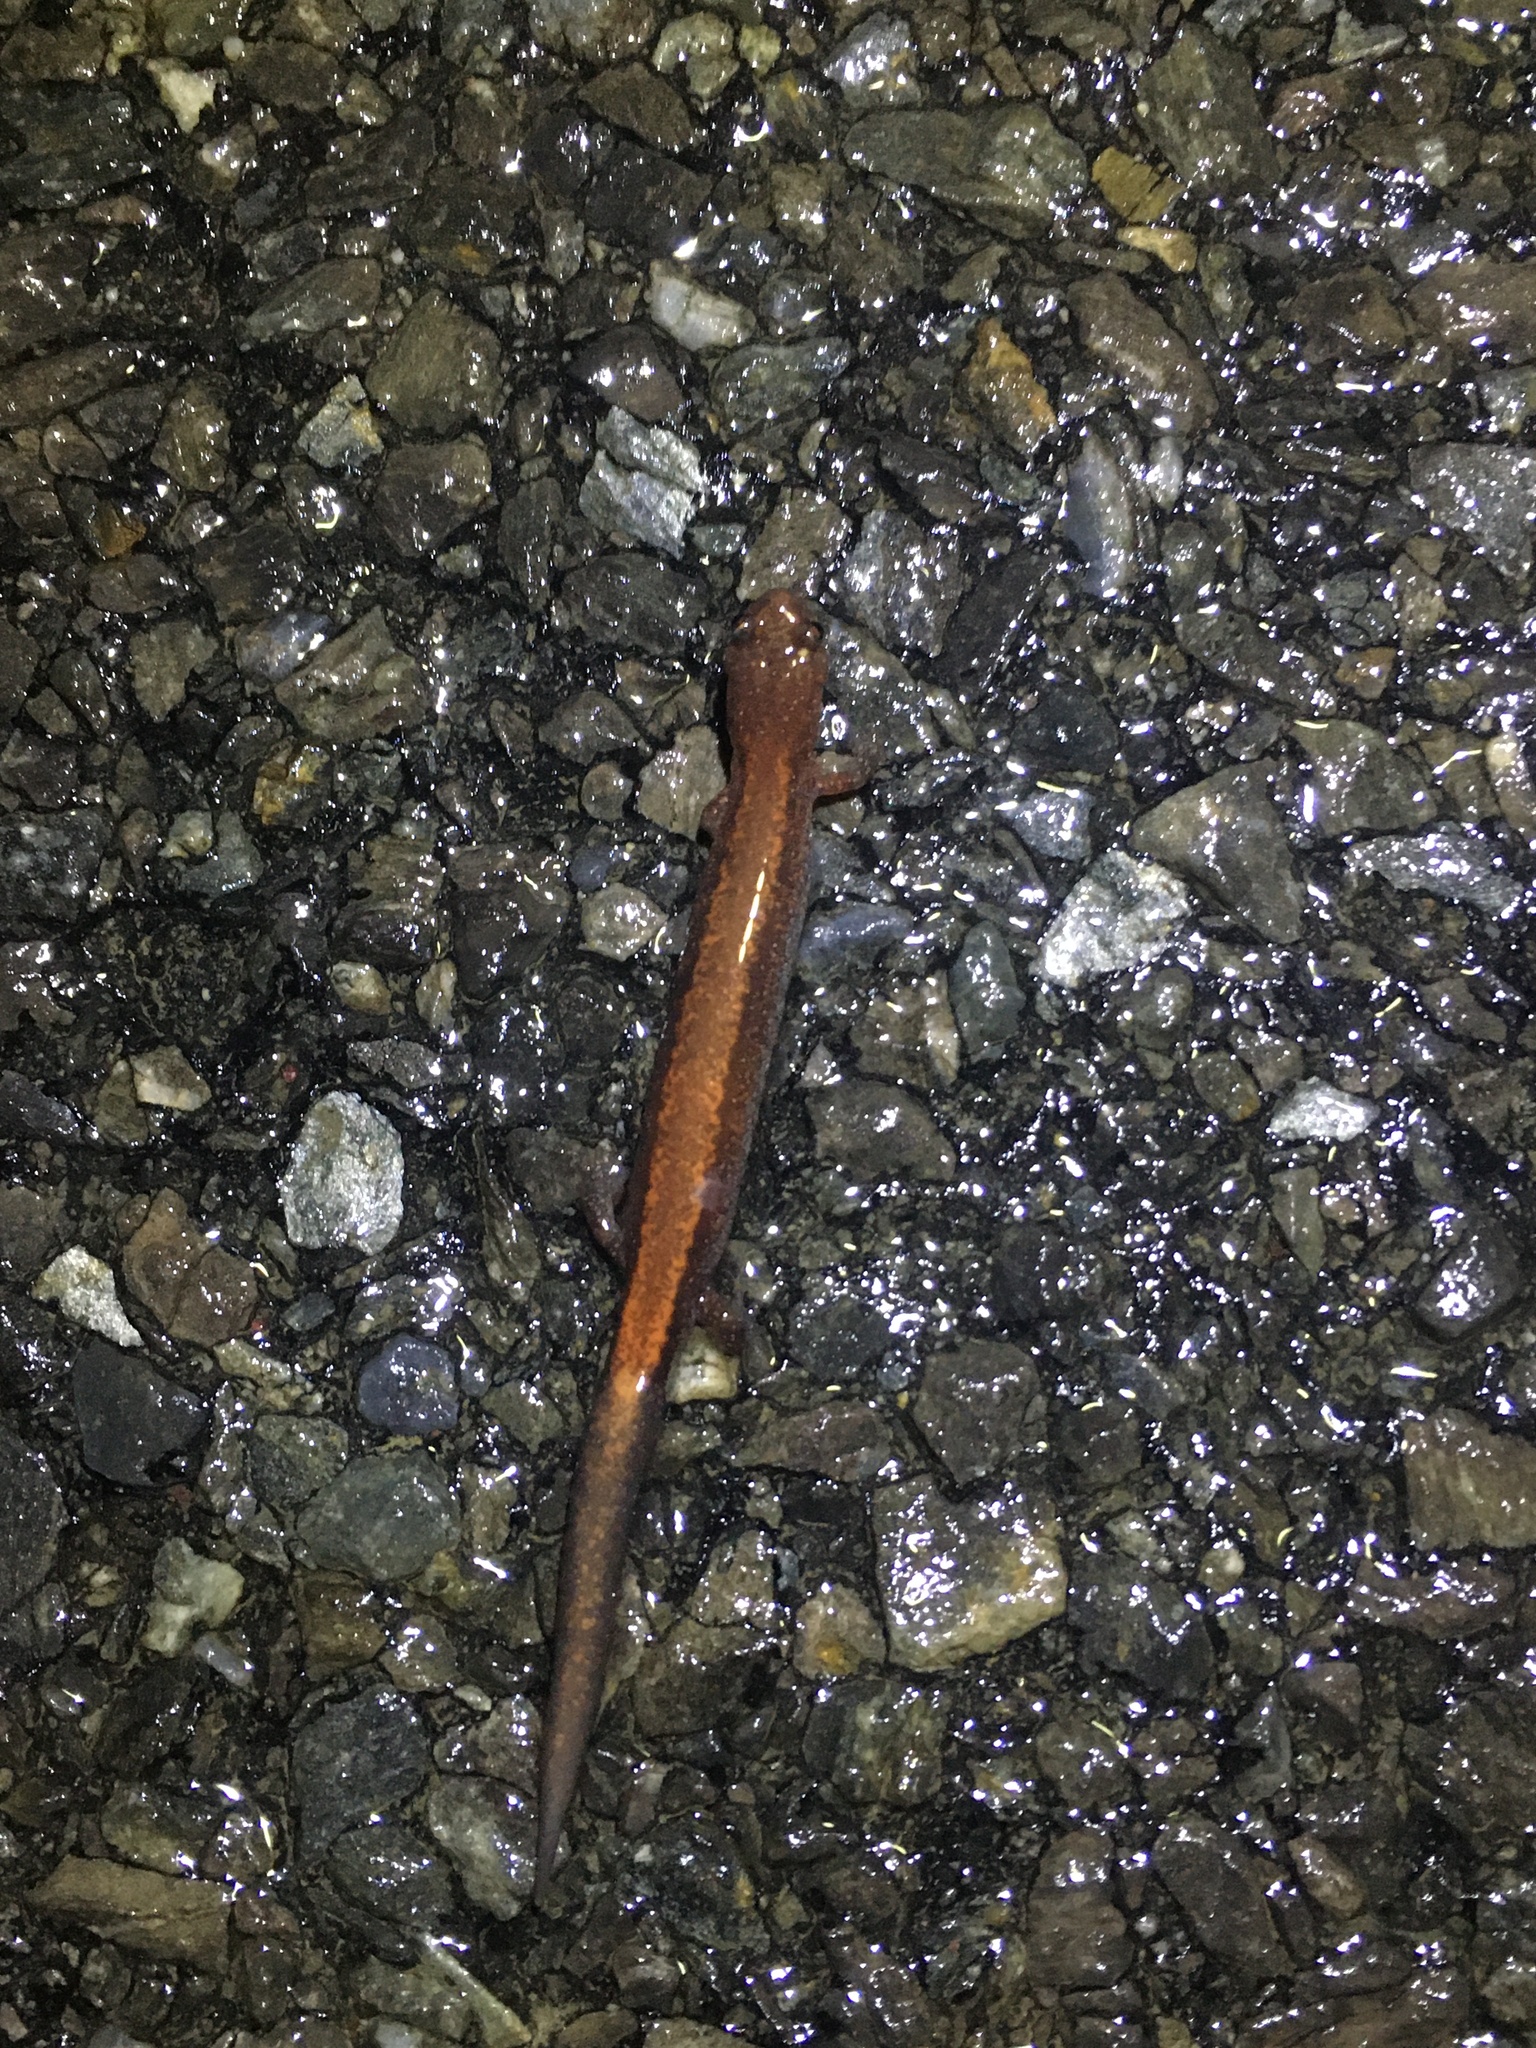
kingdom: Animalia
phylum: Chordata
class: Amphibia
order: Caudata
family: Plethodontidae
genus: Plethodon
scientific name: Plethodon cinereus
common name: Redback salamander
